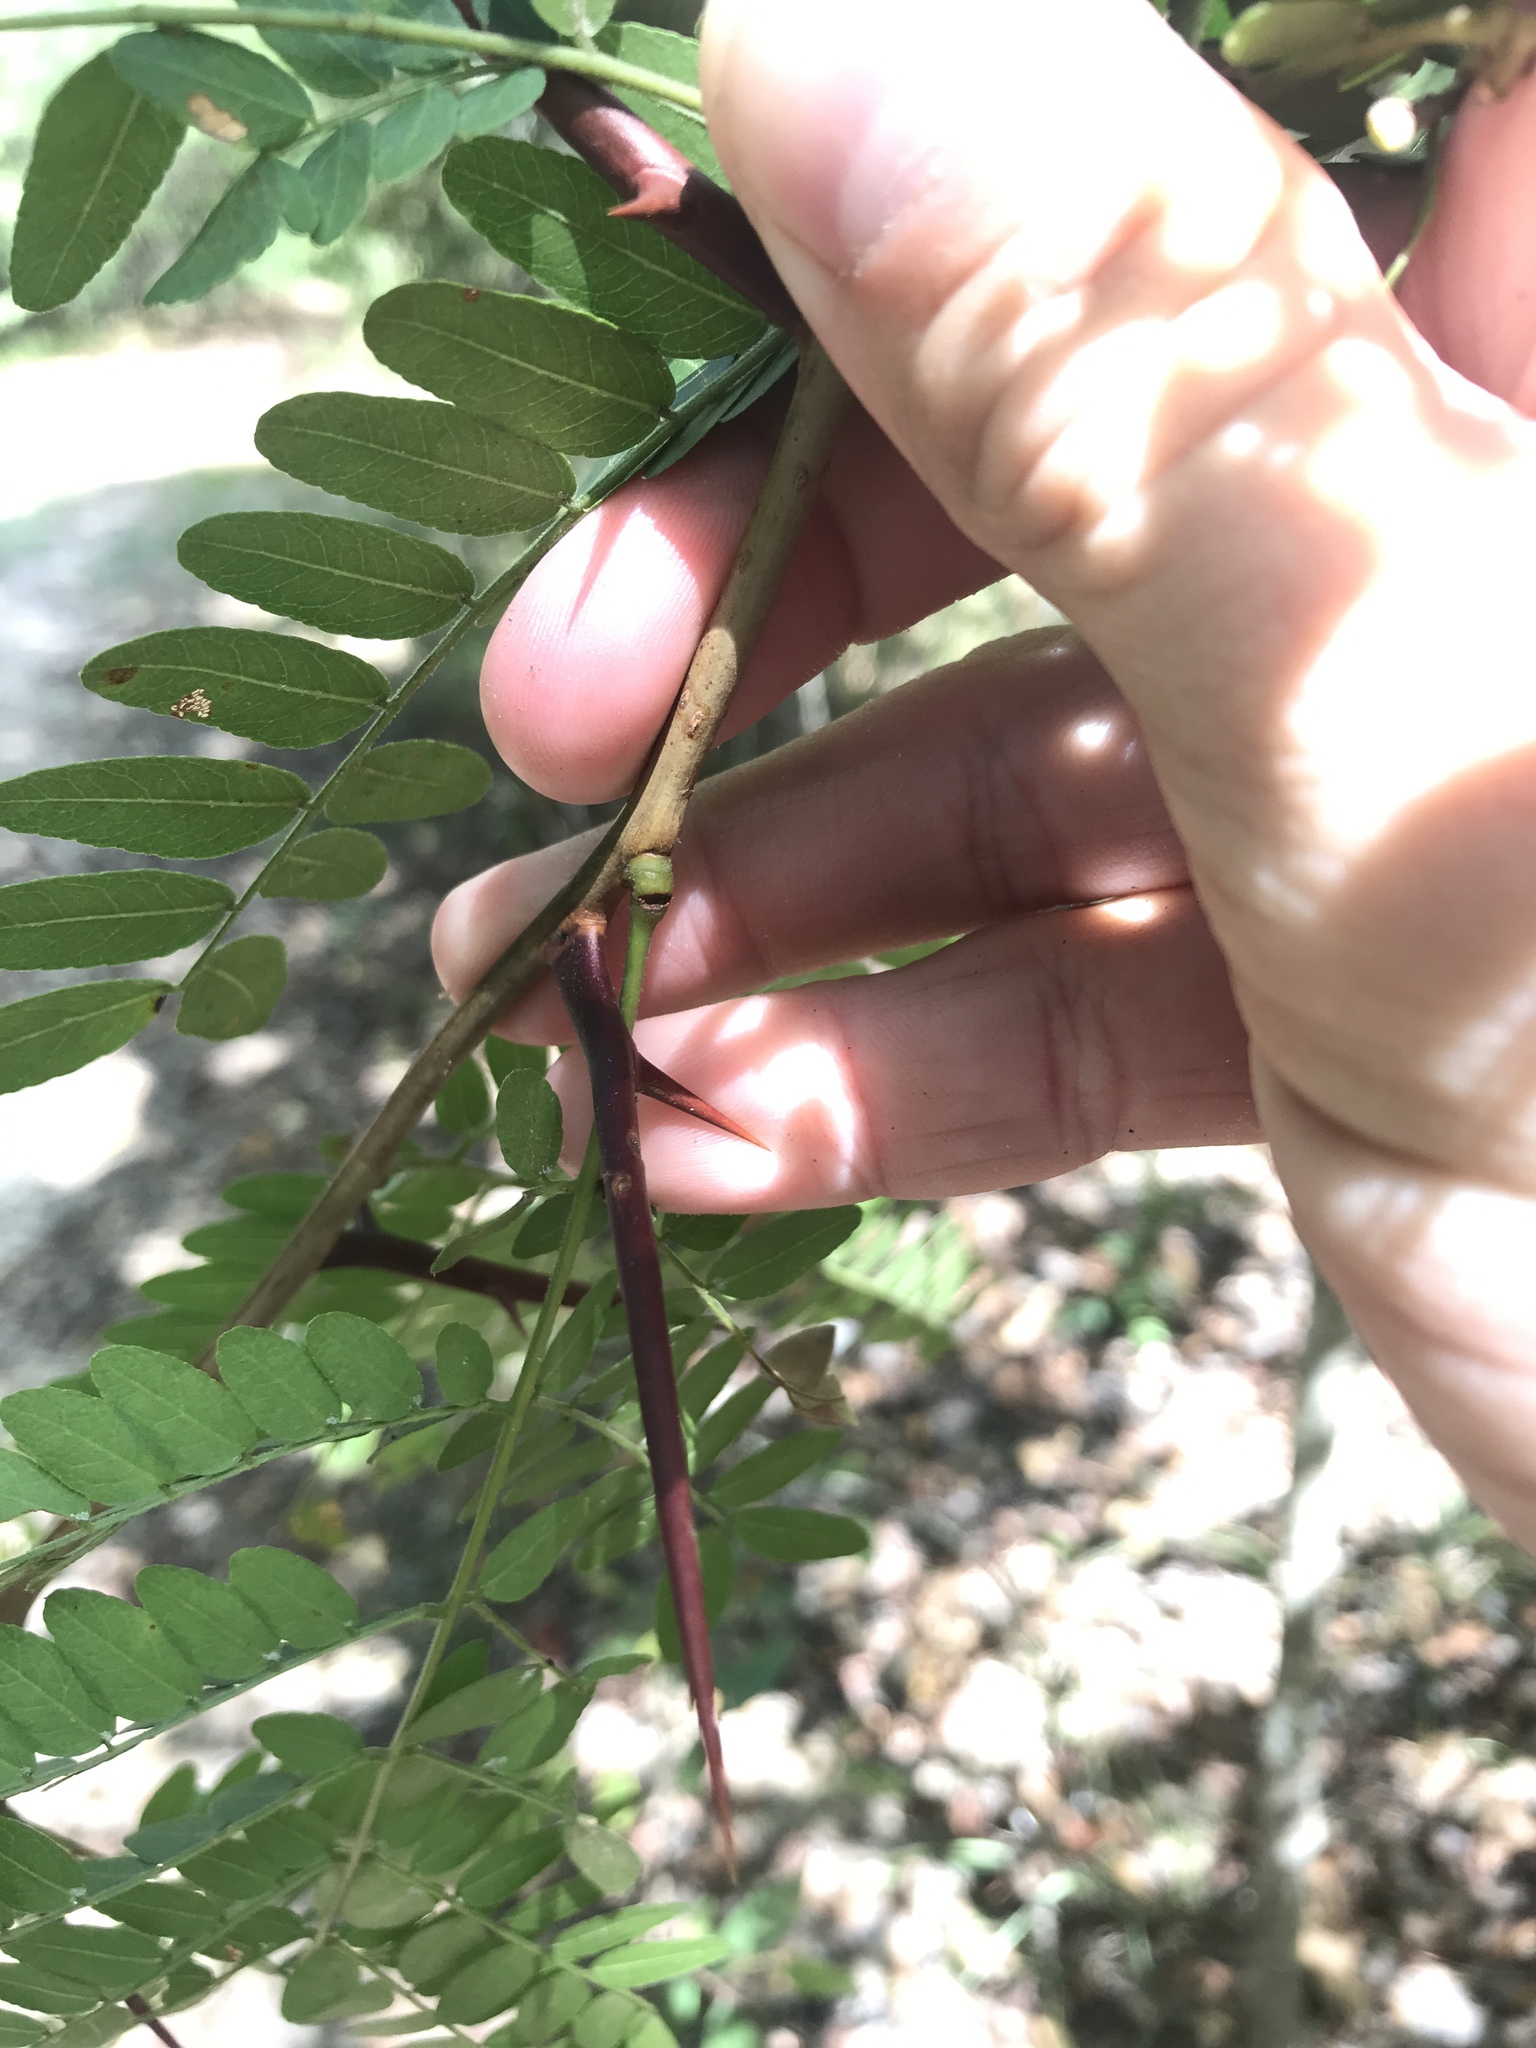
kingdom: Plantae
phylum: Tracheophyta
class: Magnoliopsida
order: Fabales
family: Fabaceae
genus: Gleditsia
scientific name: Gleditsia triacanthos
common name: Common honeylocust
